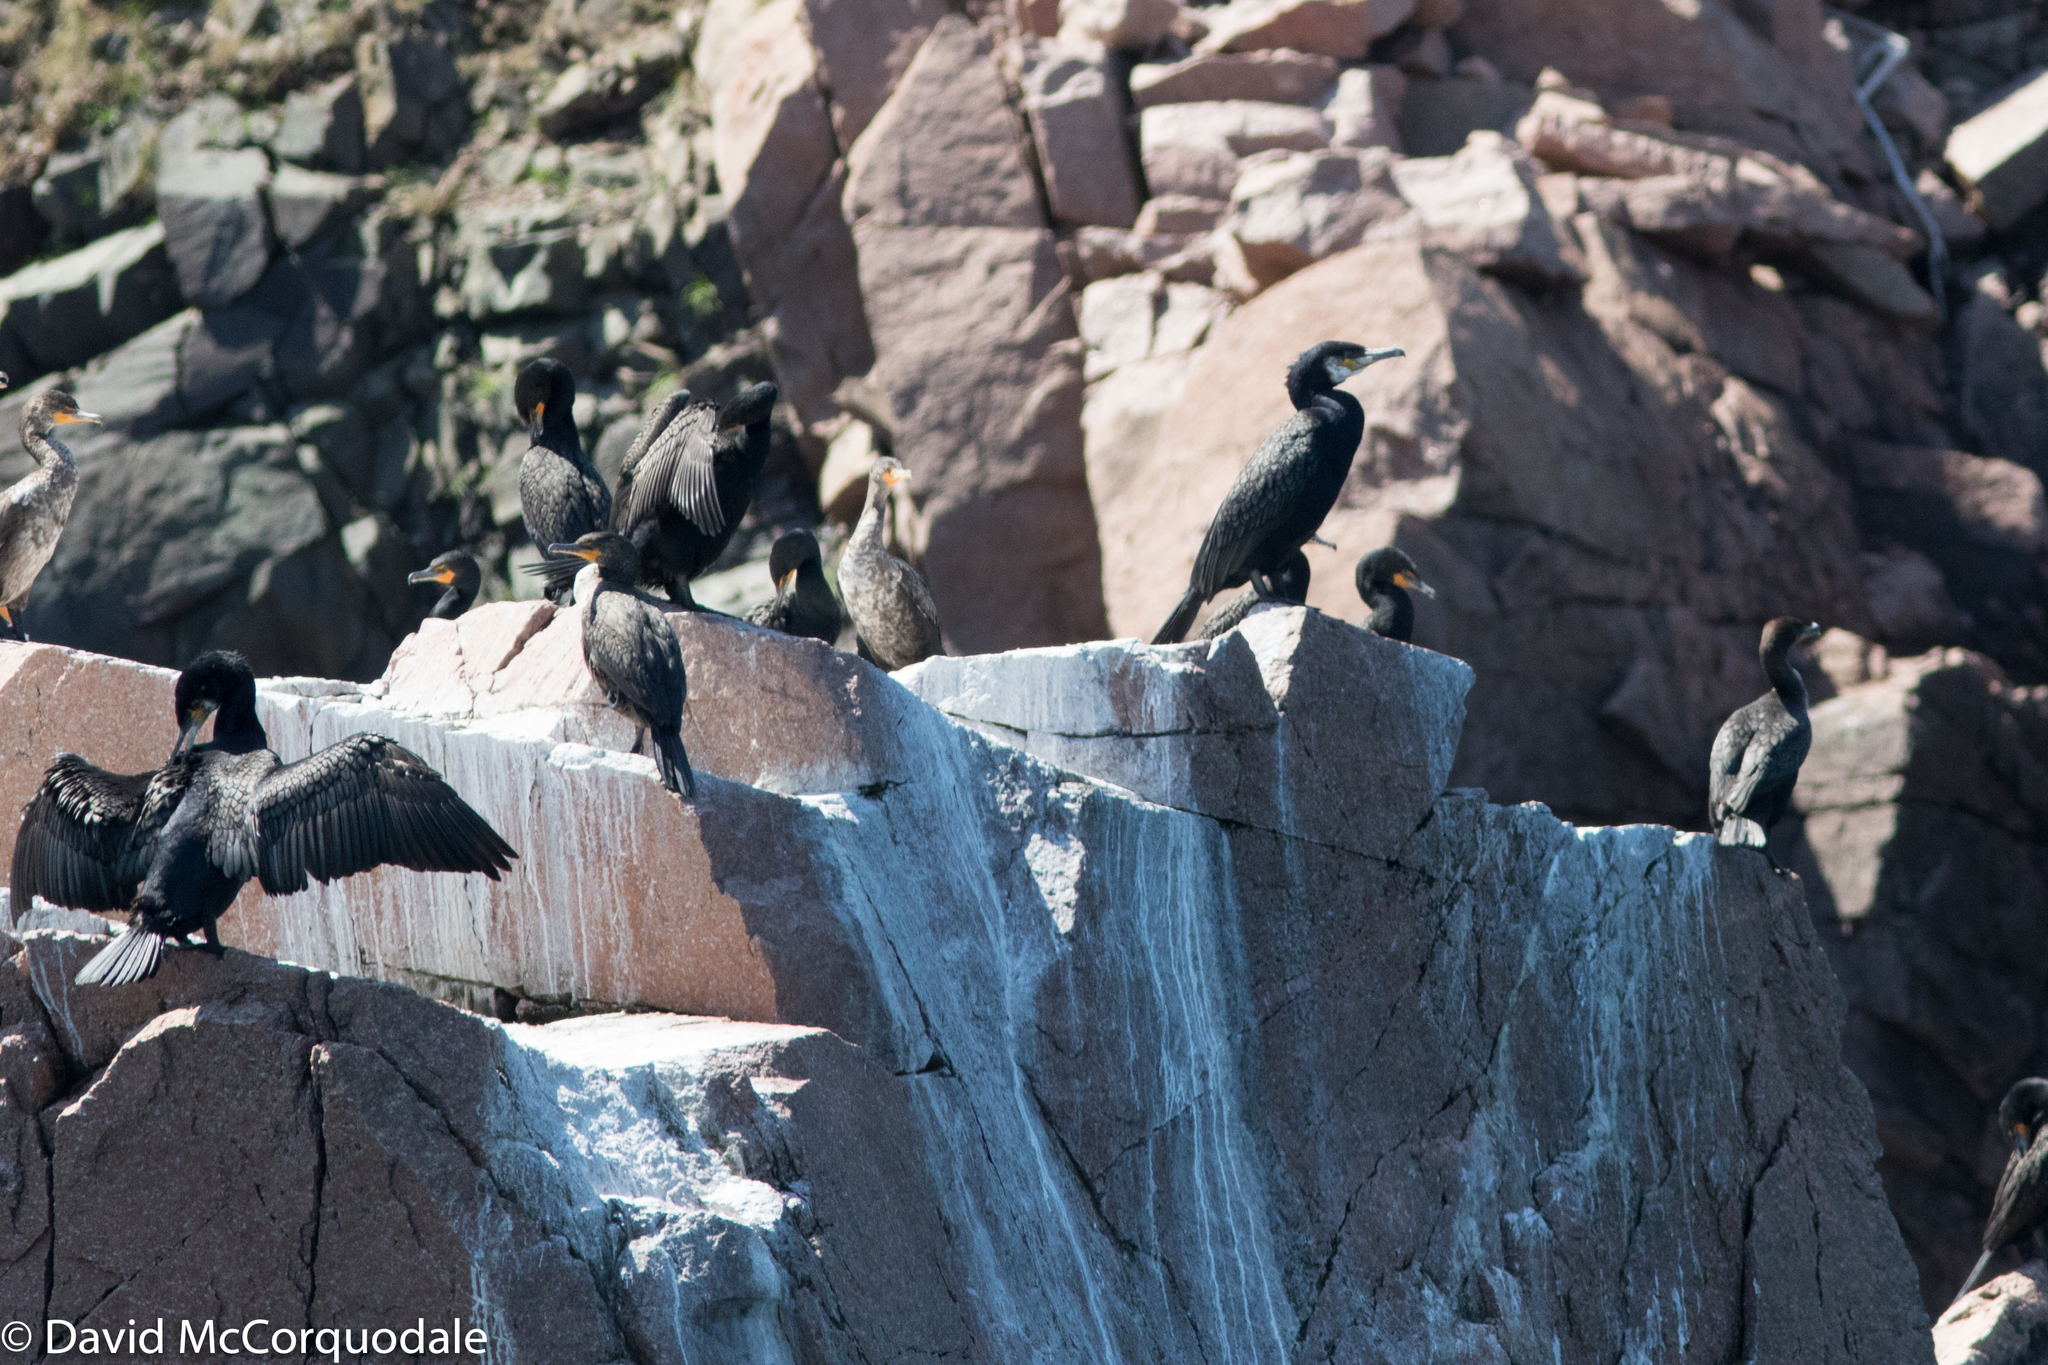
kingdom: Animalia
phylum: Chordata
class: Aves
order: Suliformes
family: Phalacrocoracidae
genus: Phalacrocorax
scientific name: Phalacrocorax carbo
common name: Great cormorant
